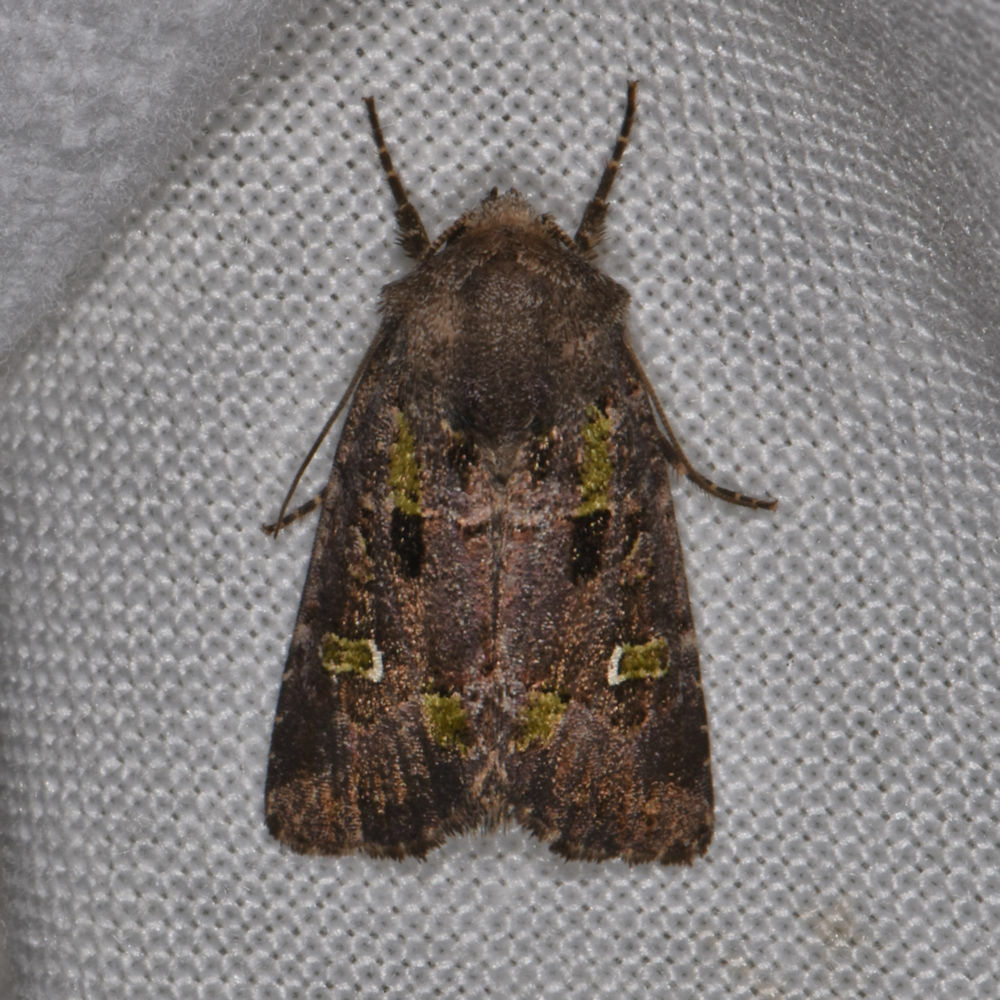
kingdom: Animalia
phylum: Arthropoda
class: Insecta
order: Lepidoptera
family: Noctuidae
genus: Lacinipolia
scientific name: Lacinipolia renigera
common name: Kidney-spotted minor
